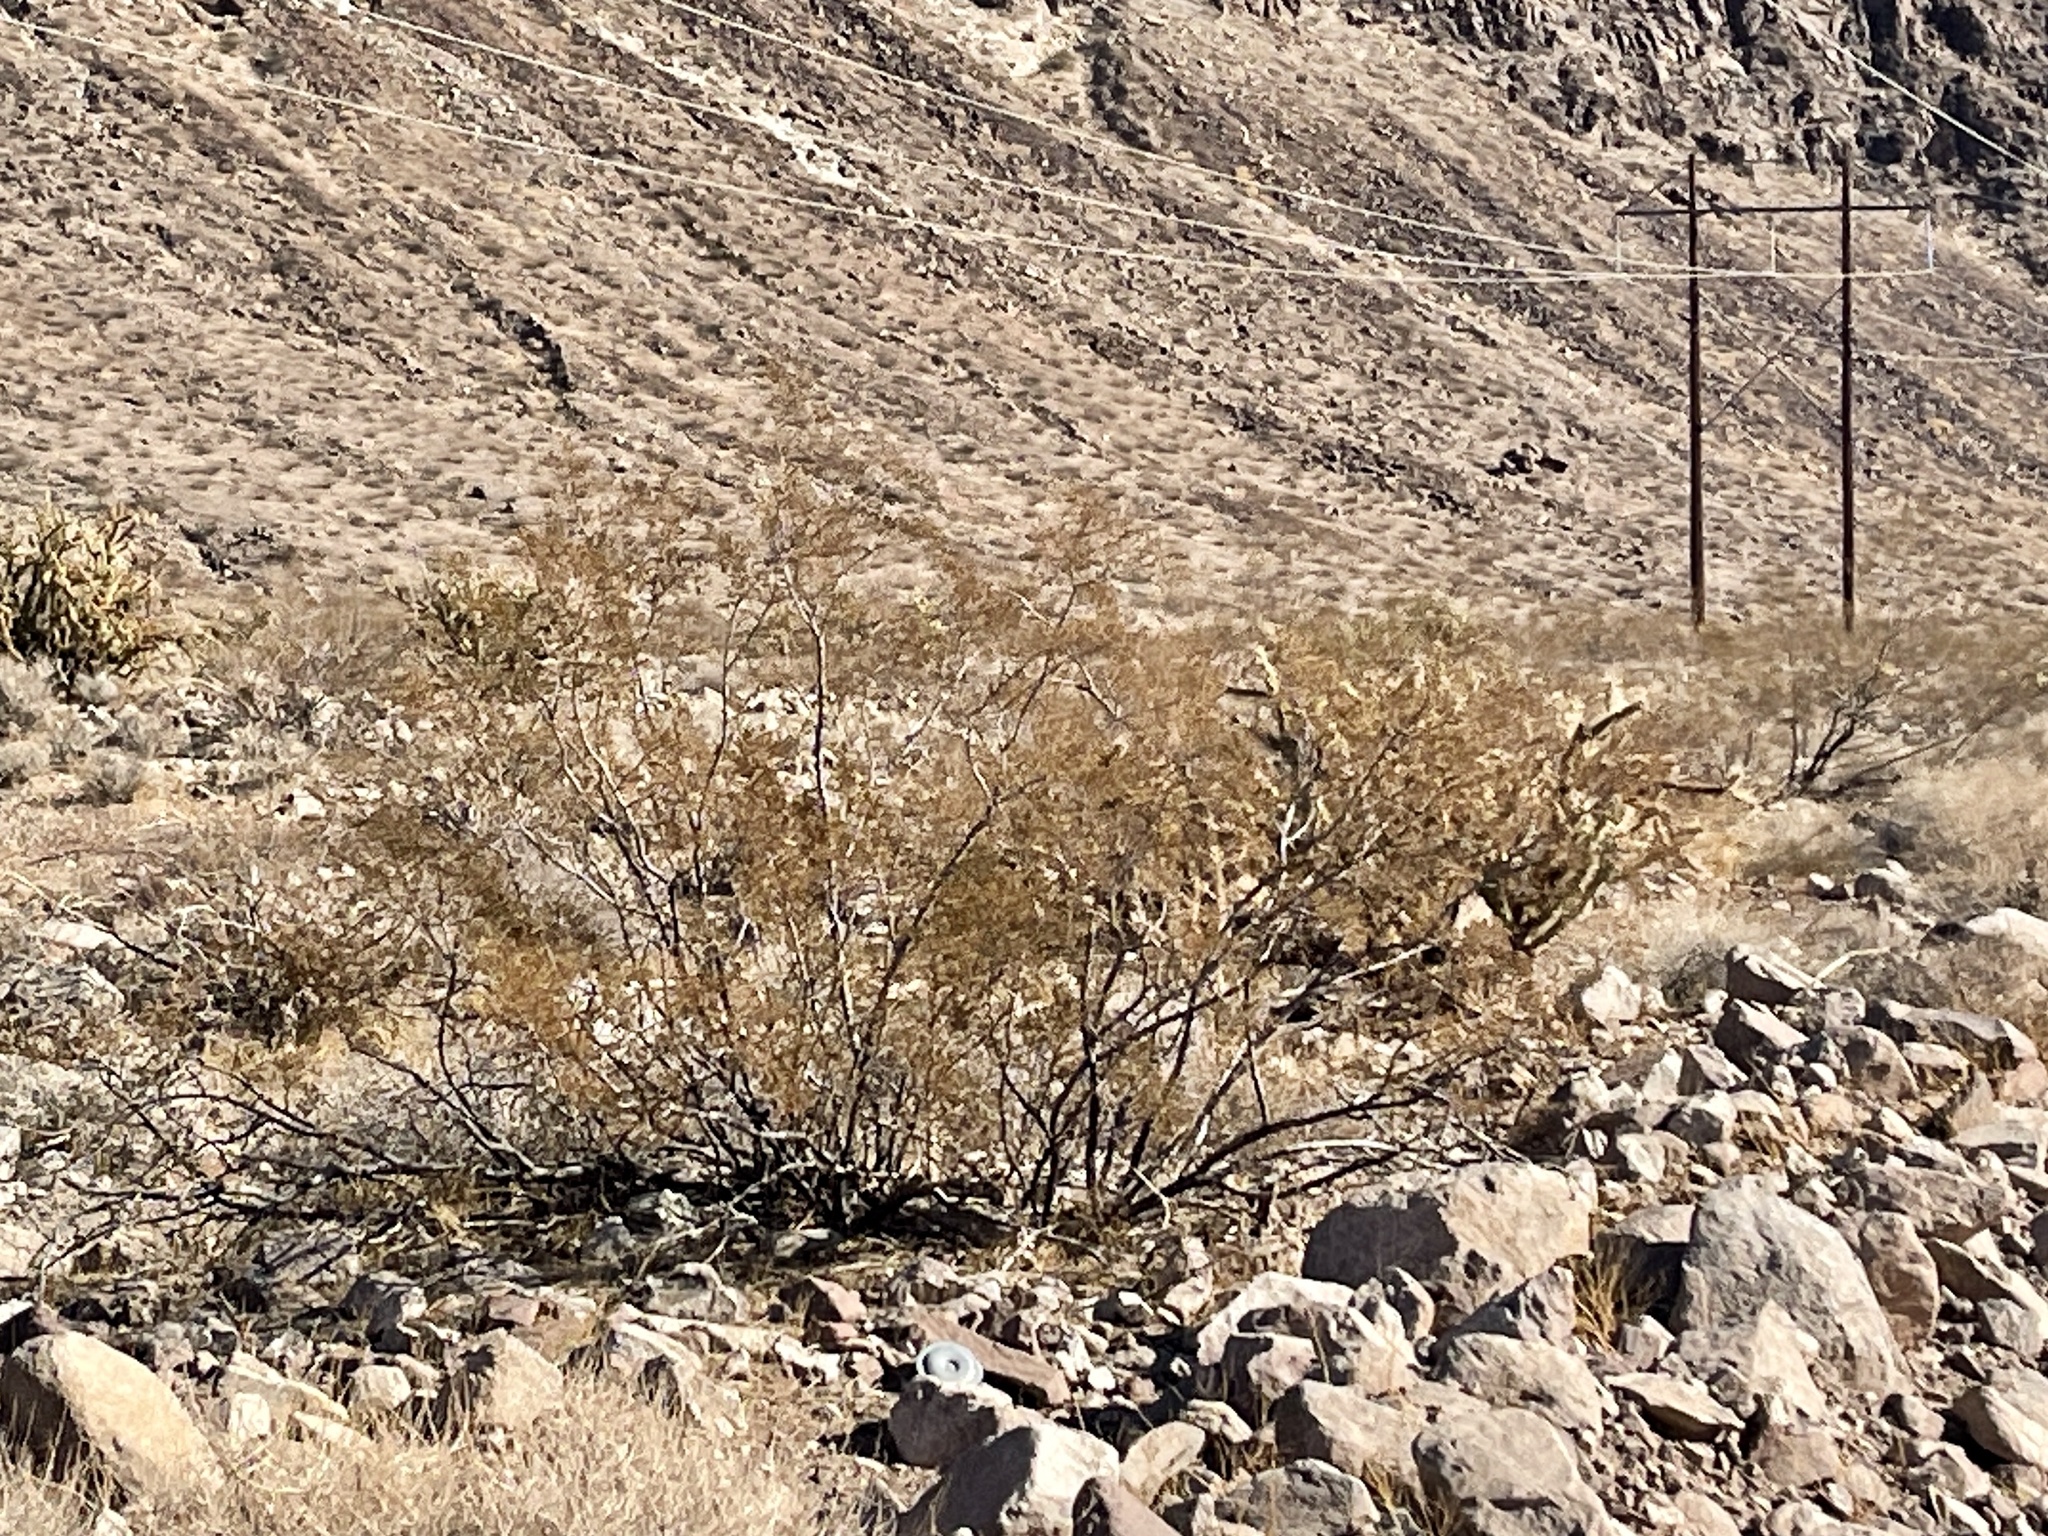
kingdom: Plantae
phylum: Tracheophyta
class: Magnoliopsida
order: Zygophyllales
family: Zygophyllaceae
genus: Larrea
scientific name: Larrea tridentata
